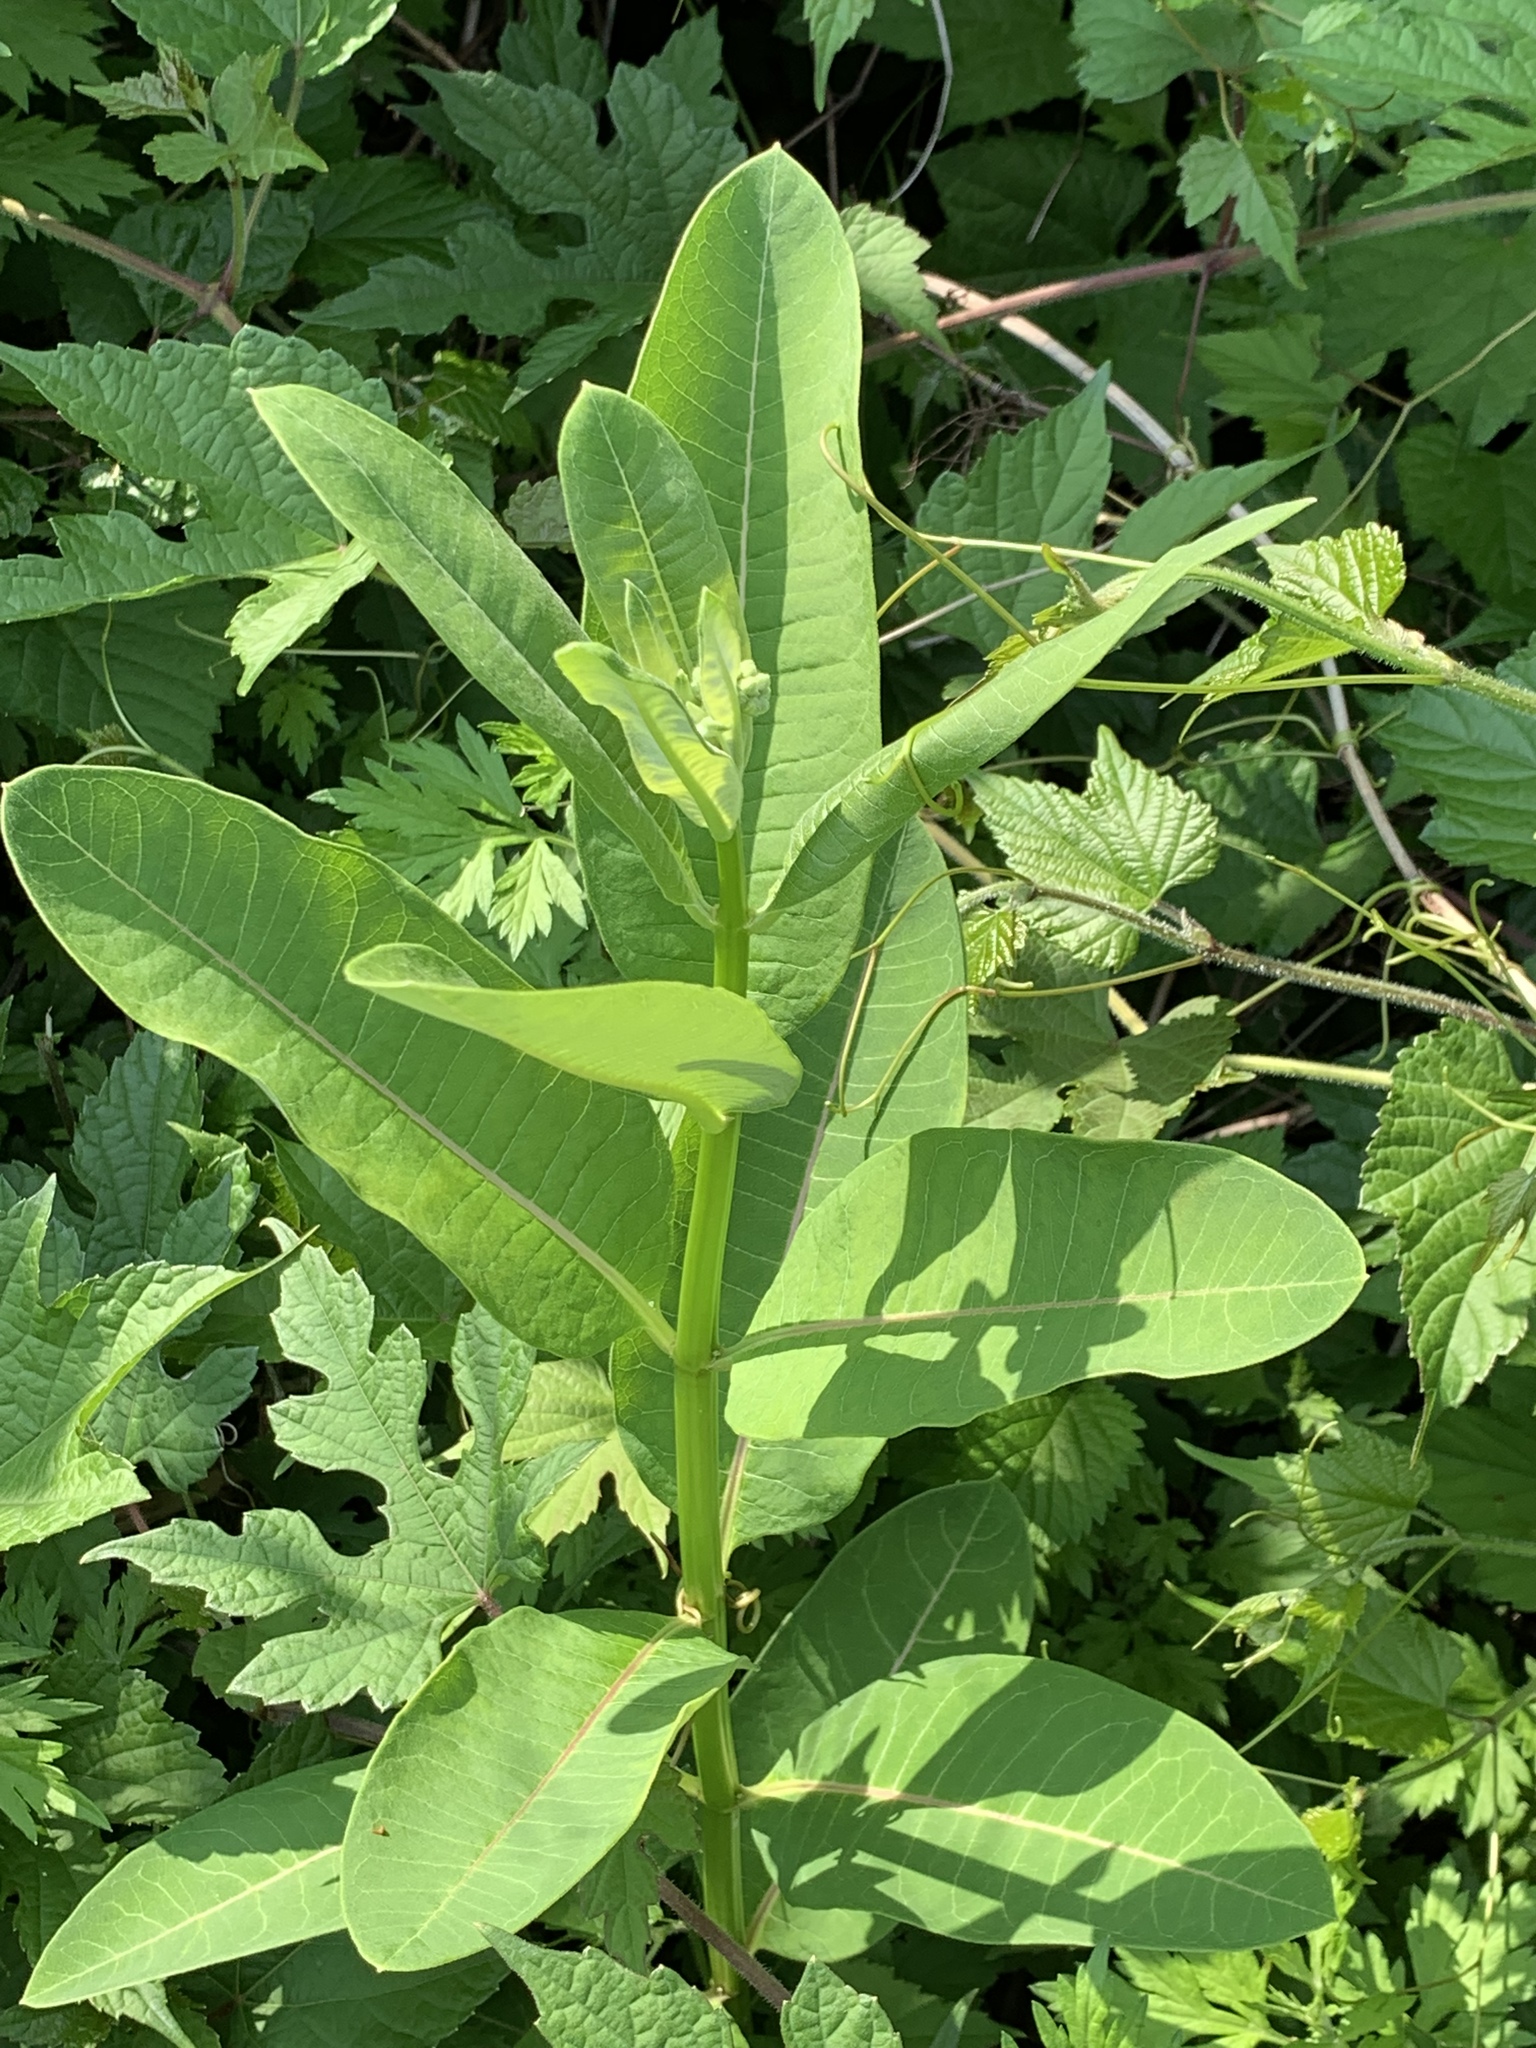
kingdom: Plantae
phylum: Tracheophyta
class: Magnoliopsida
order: Gentianales
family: Apocynaceae
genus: Asclepias
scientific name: Asclepias syriaca
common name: Common milkweed
